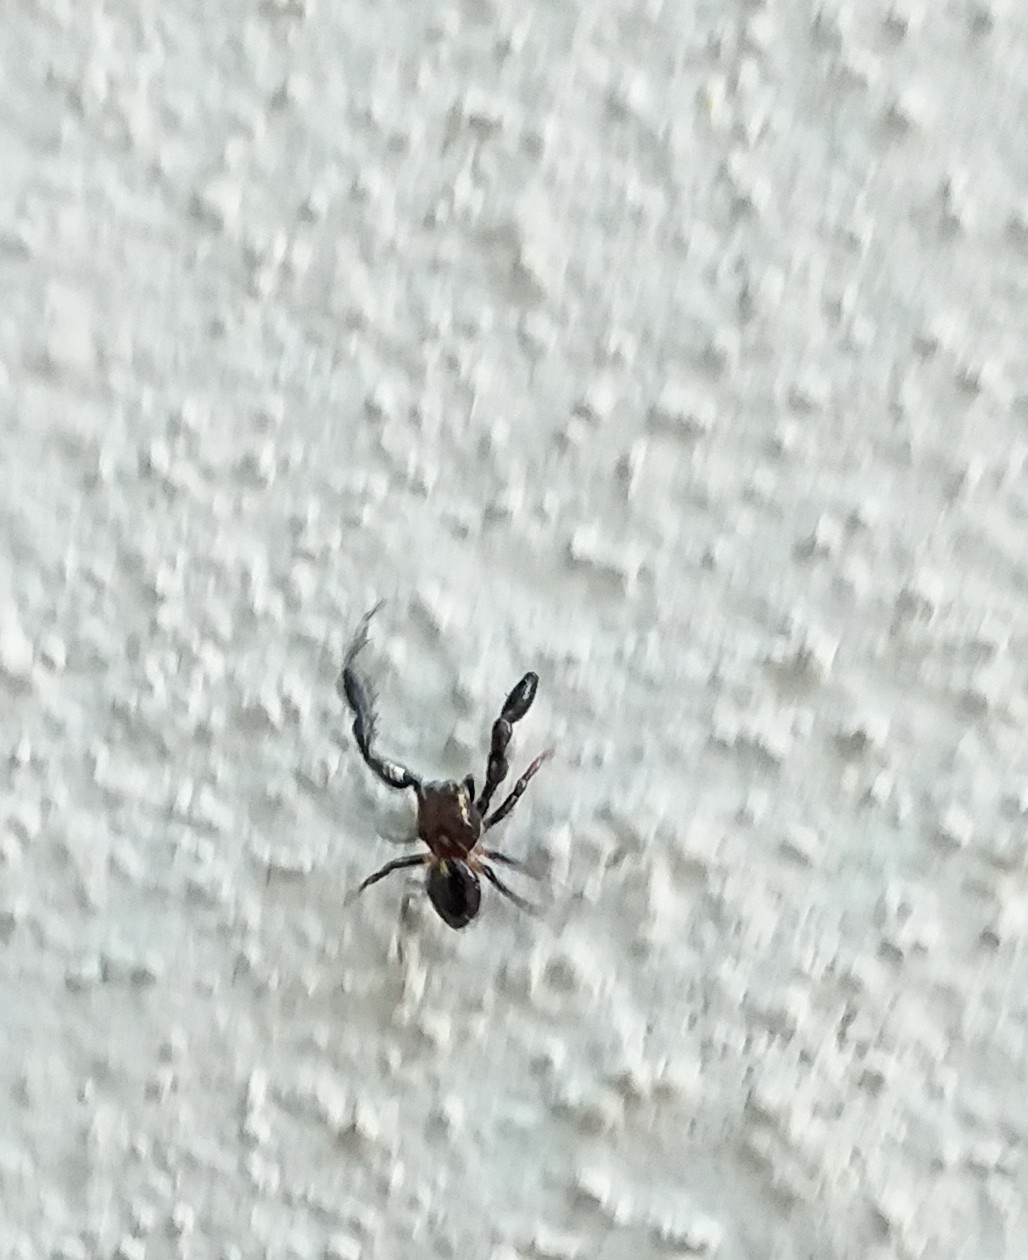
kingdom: Animalia
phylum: Arthropoda
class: Arachnida
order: Araneae
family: Salticidae
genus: Harmochirus
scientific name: Harmochirus brachiatus
